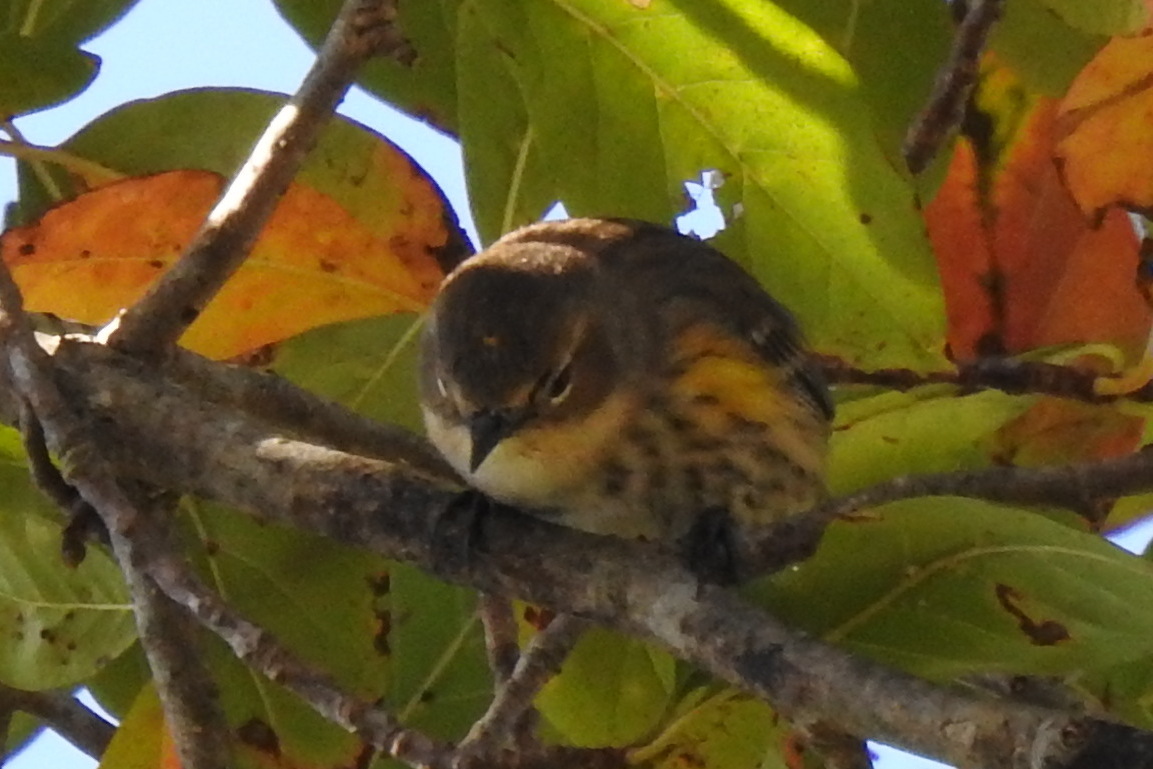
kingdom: Animalia
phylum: Chordata
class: Aves
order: Passeriformes
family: Parulidae
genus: Setophaga
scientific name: Setophaga coronata
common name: Myrtle warbler
